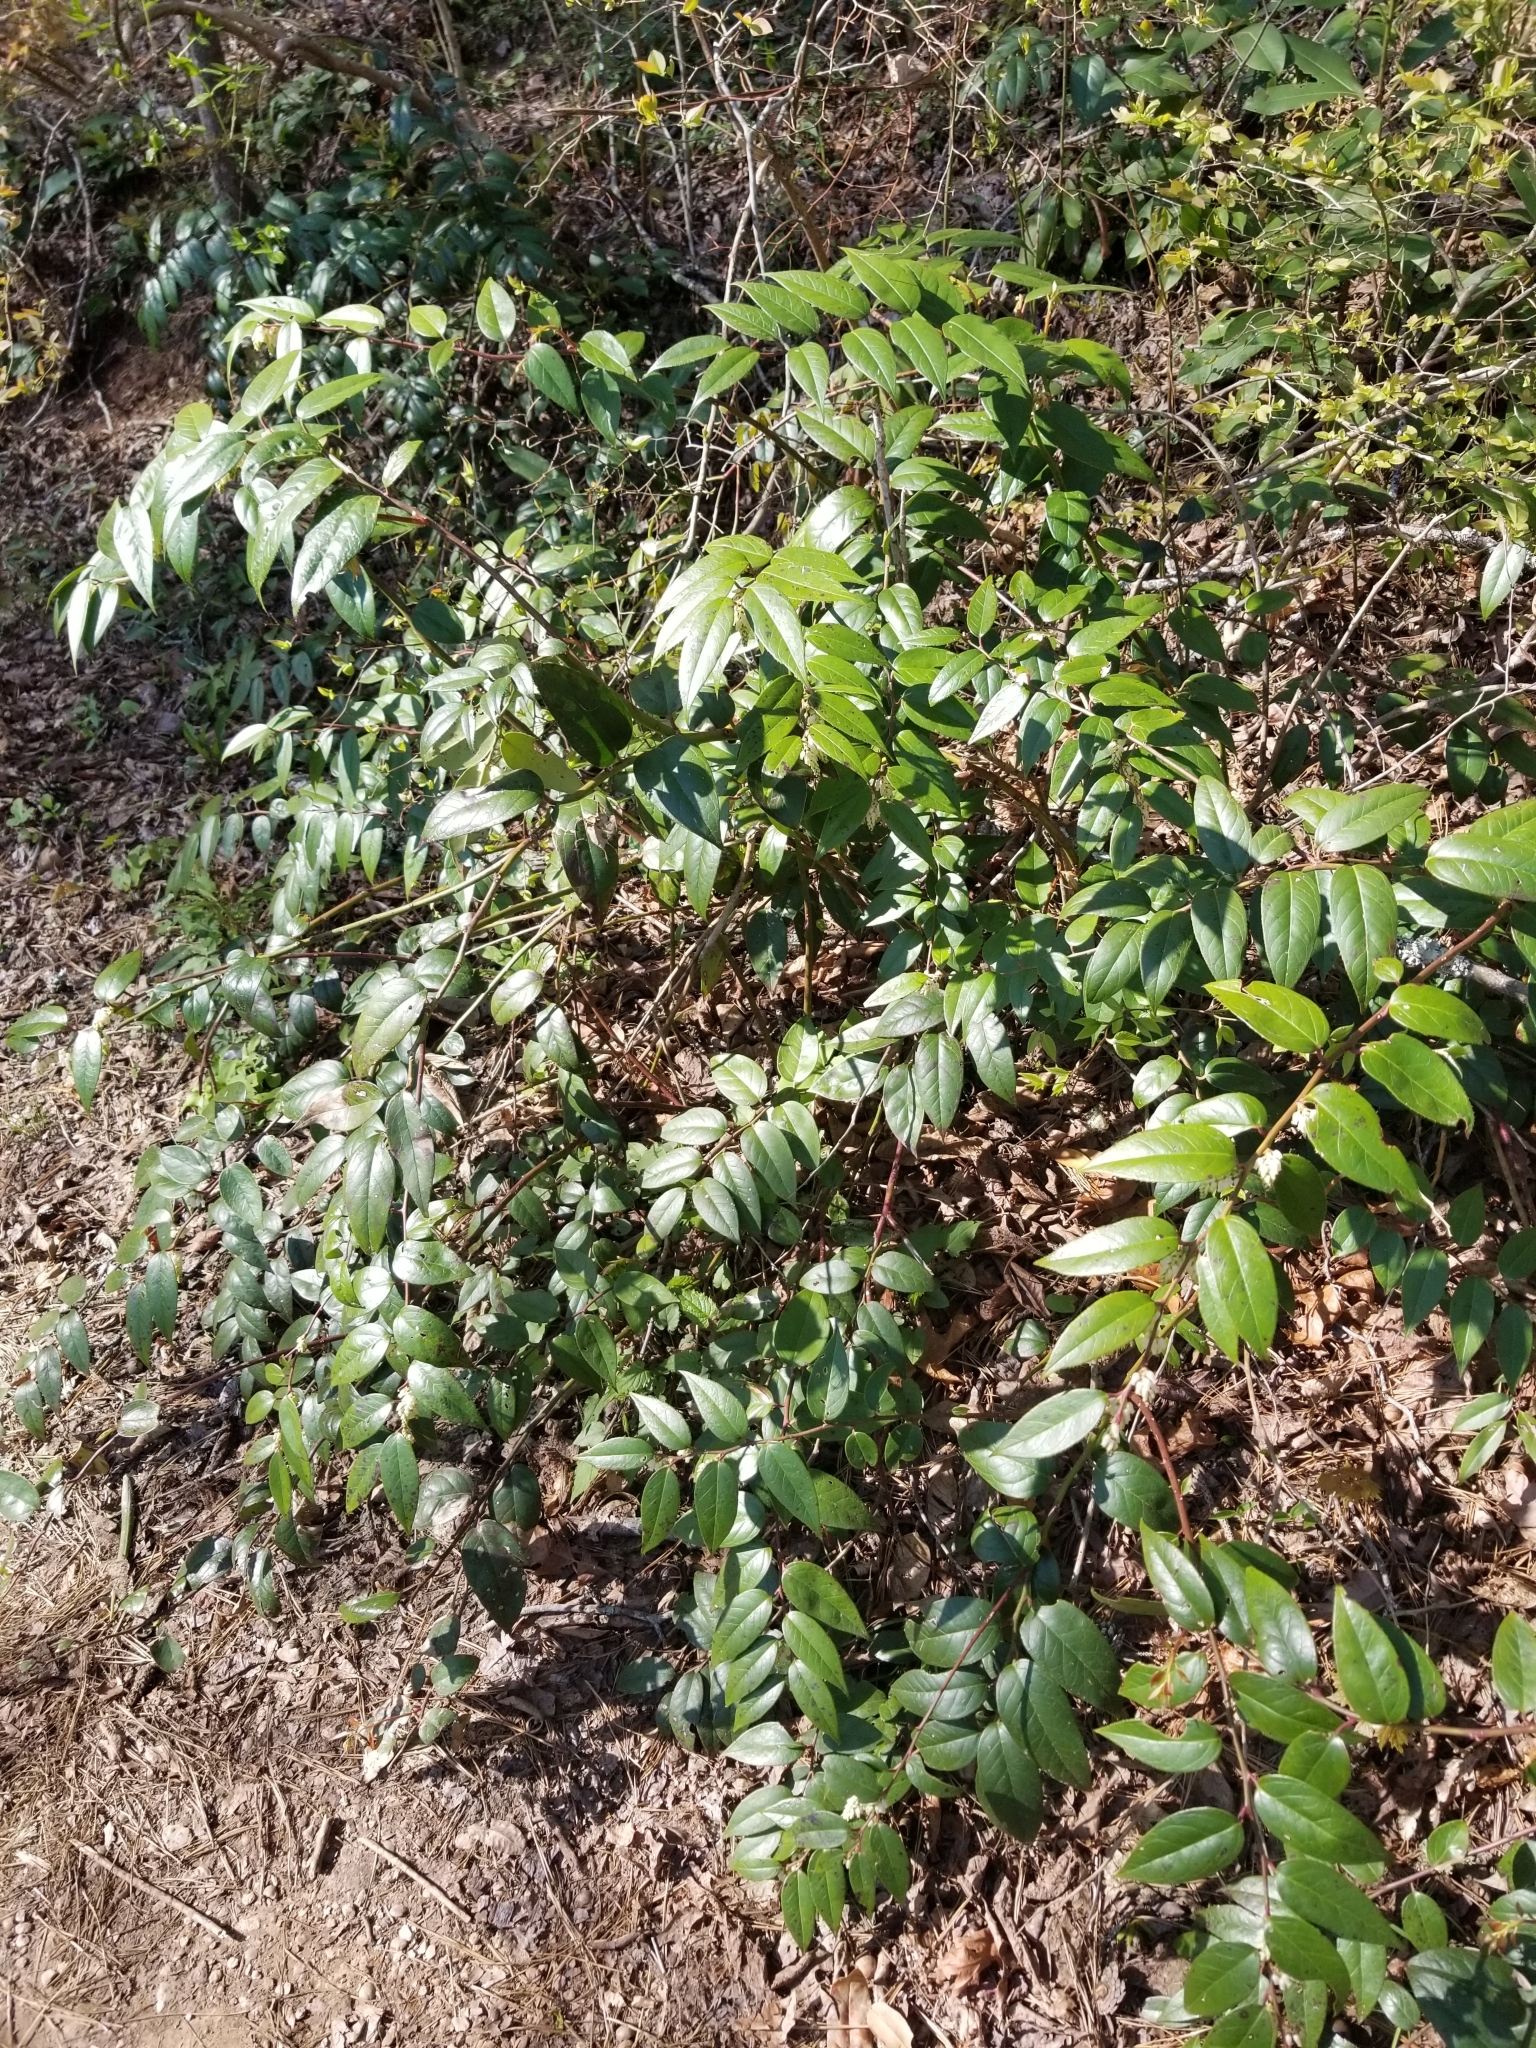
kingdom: Plantae
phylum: Tracheophyta
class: Magnoliopsida
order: Ericales
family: Ericaceae
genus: Leucothoe
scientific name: Leucothoe fontanesiana
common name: Fetterbush
